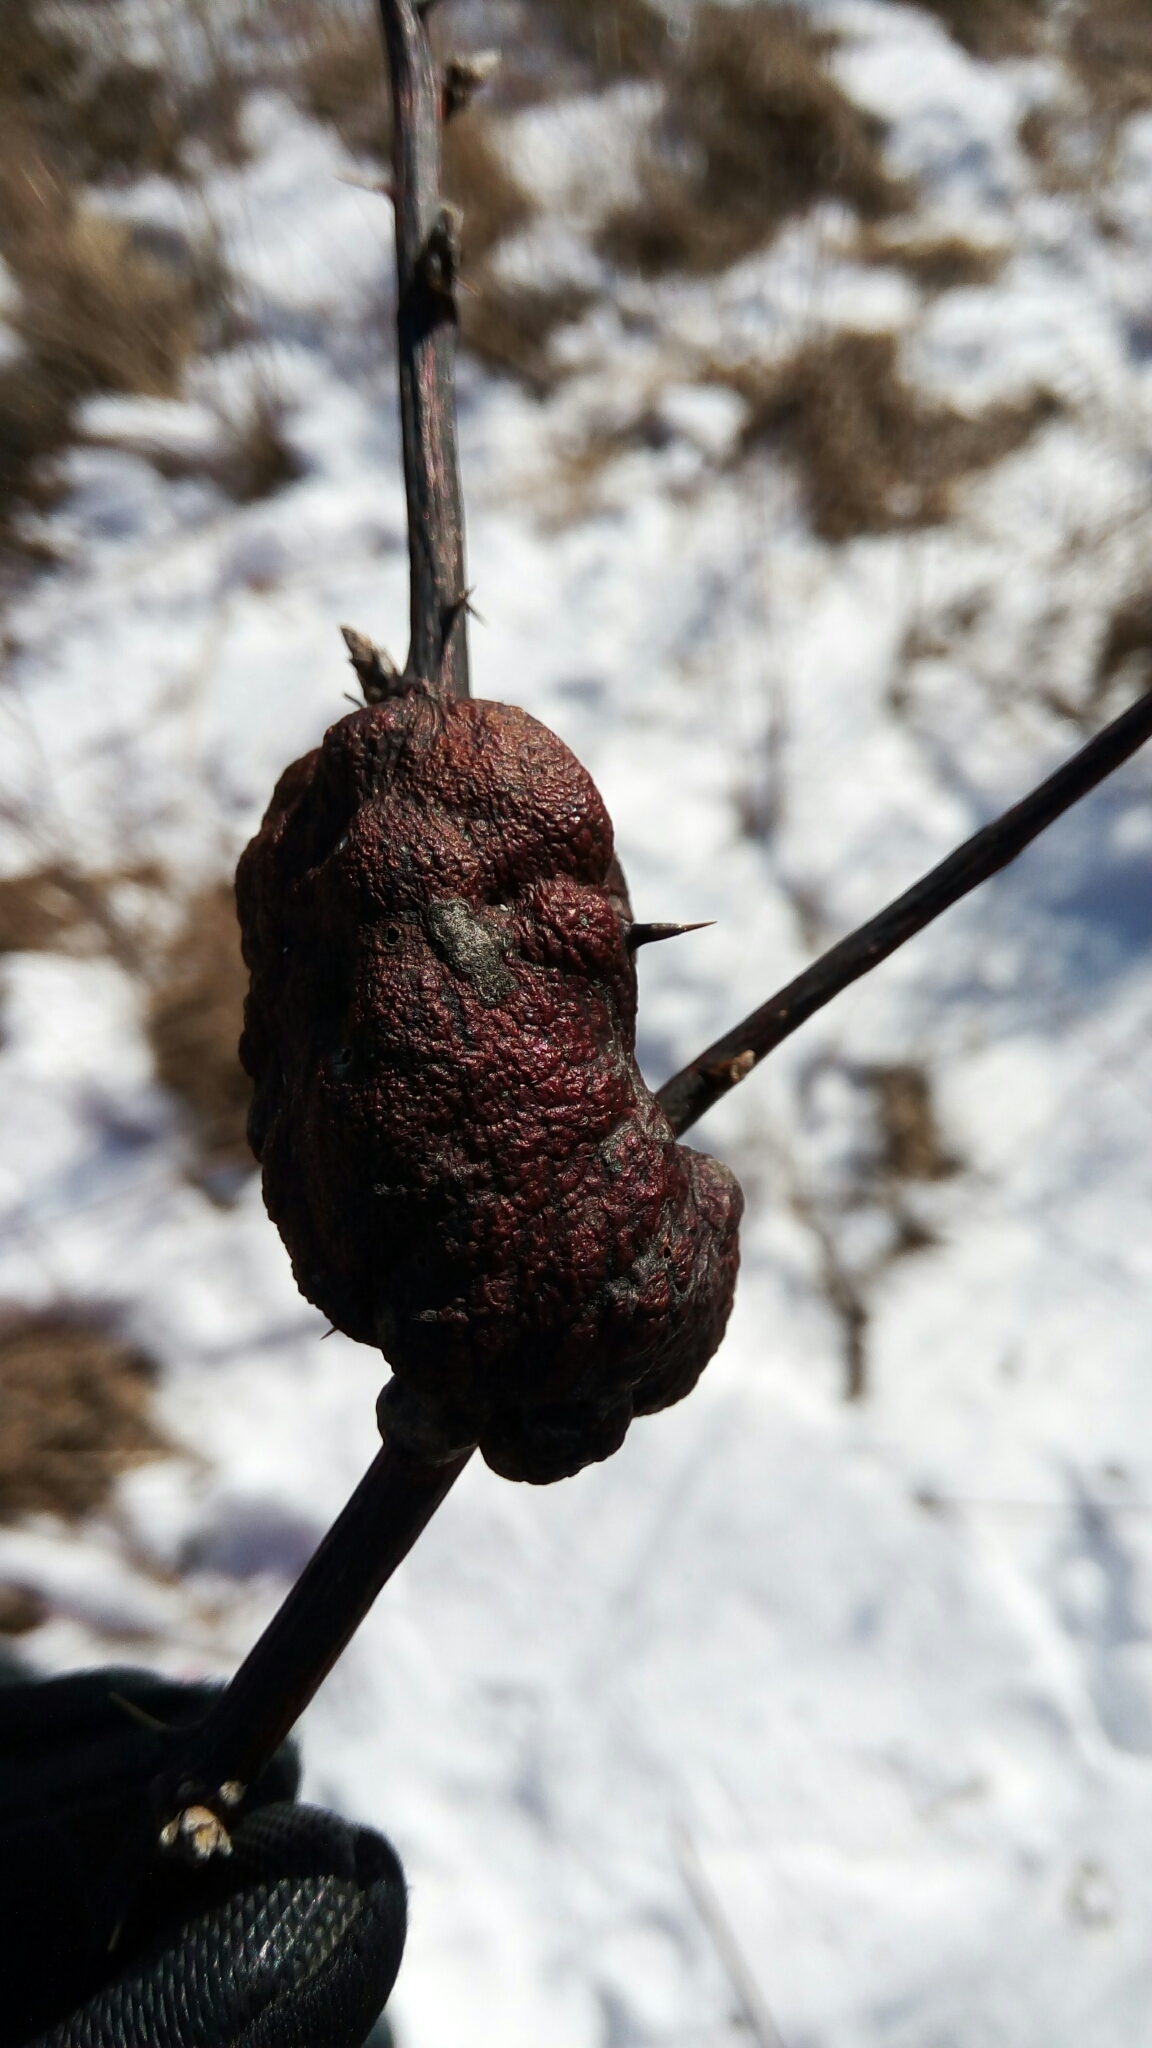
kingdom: Animalia
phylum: Arthropoda
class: Insecta
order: Hymenoptera
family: Cynipidae
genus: Diastrophus
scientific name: Diastrophus
